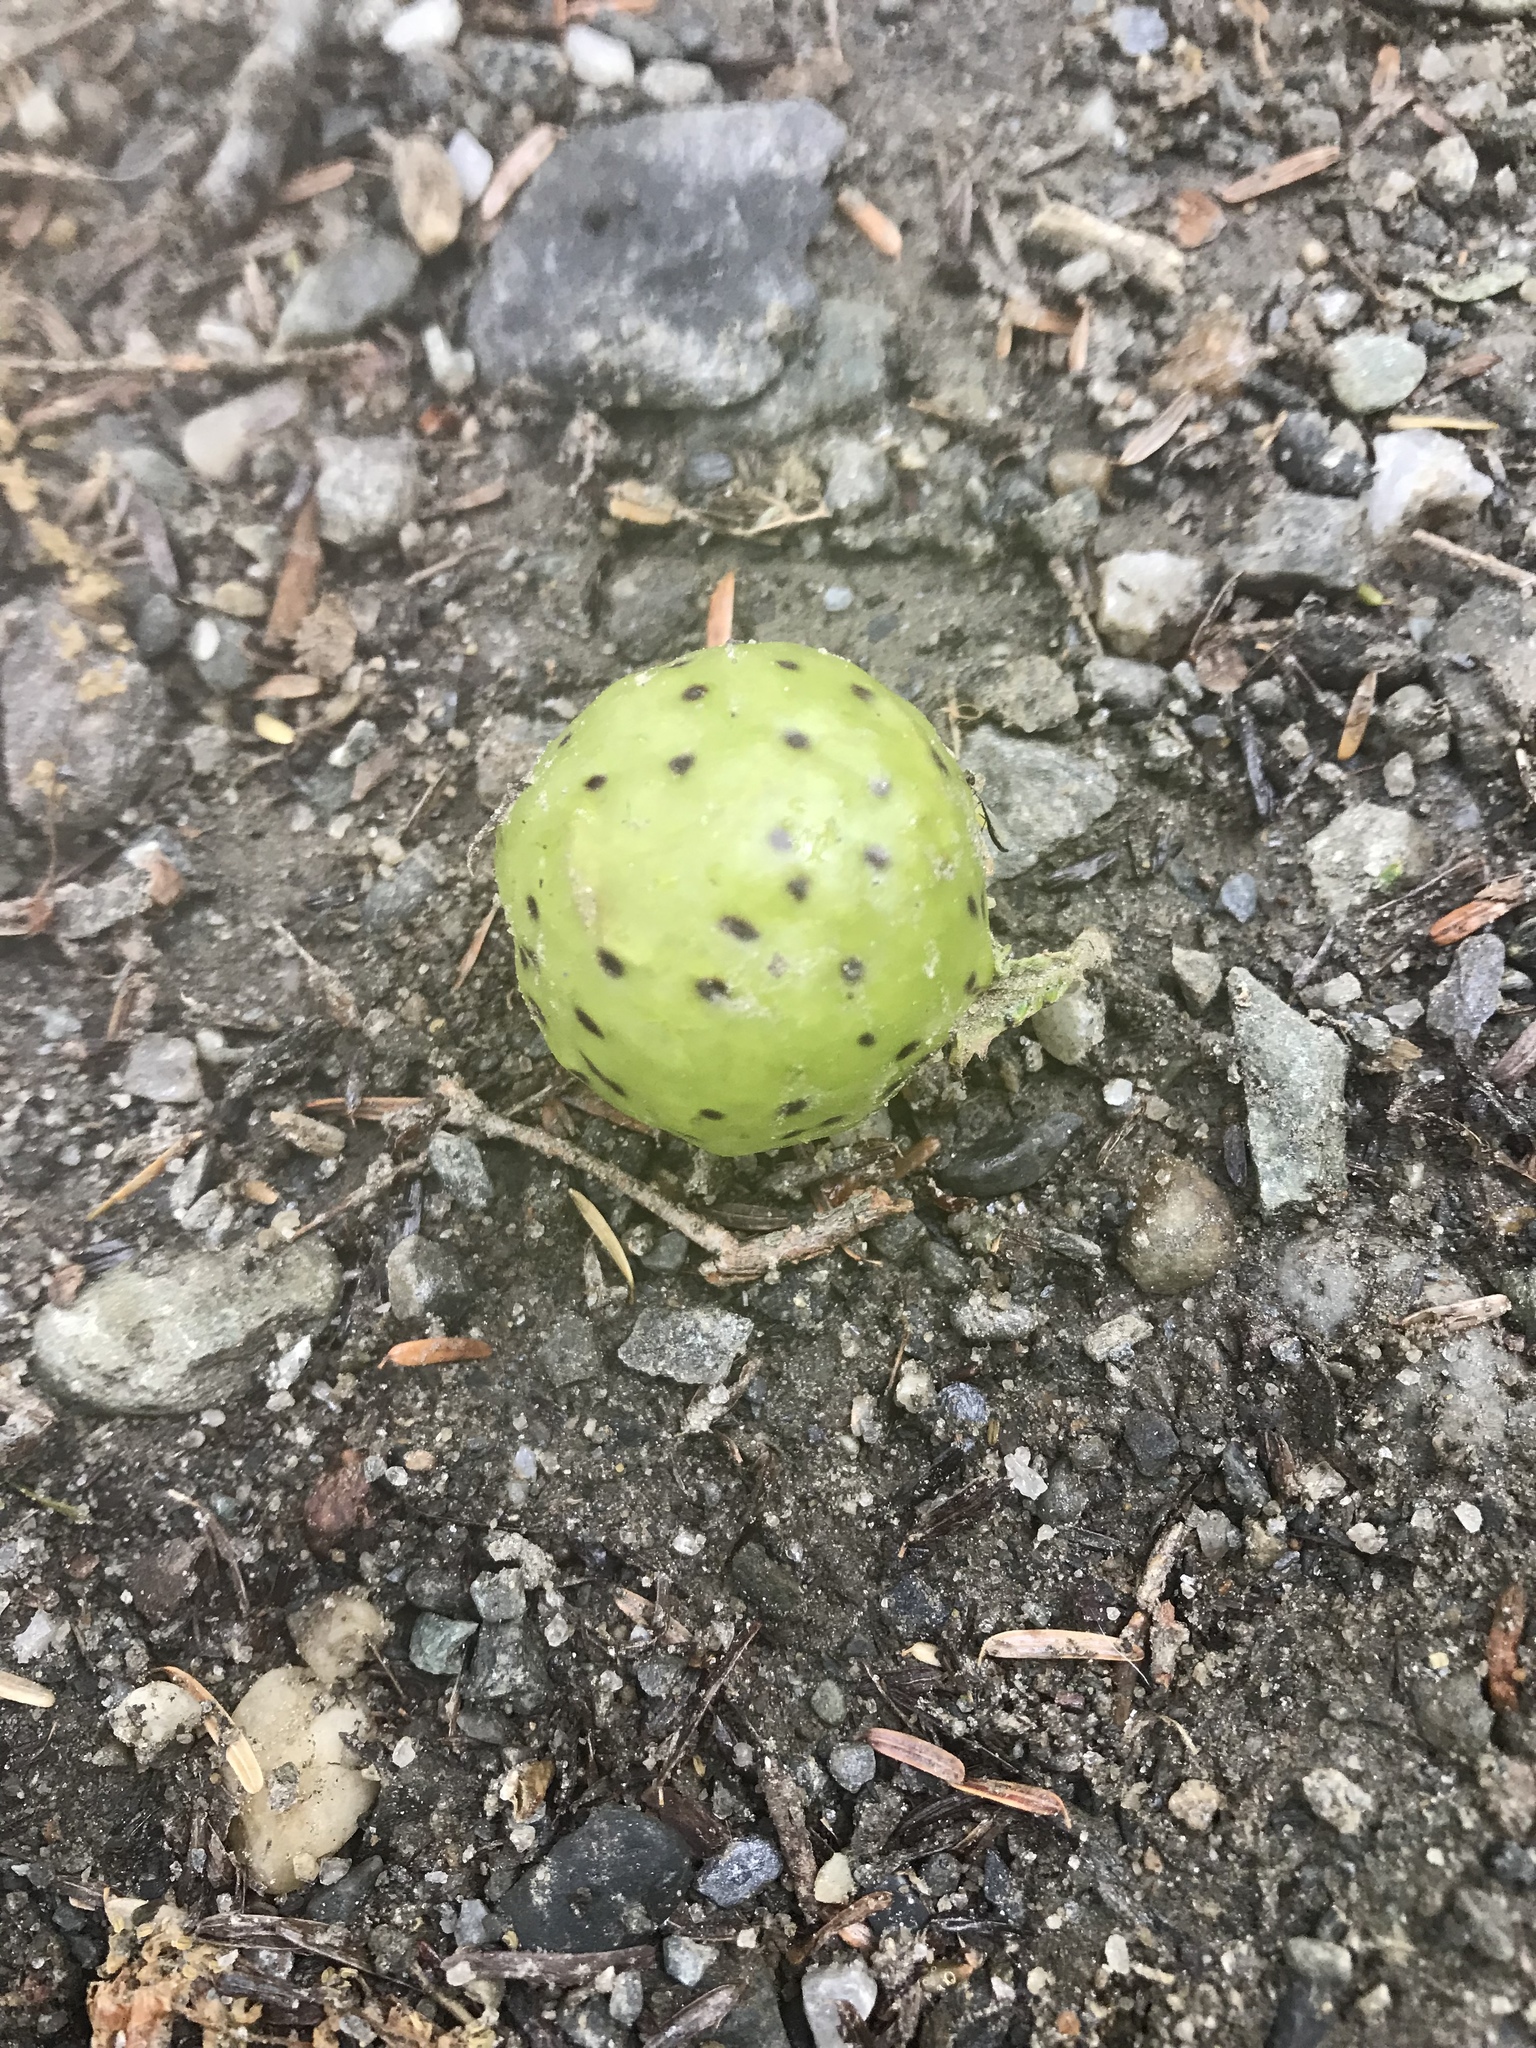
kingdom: Animalia
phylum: Arthropoda
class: Insecta
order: Hymenoptera
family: Cynipidae
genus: Amphibolips
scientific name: Amphibolips
